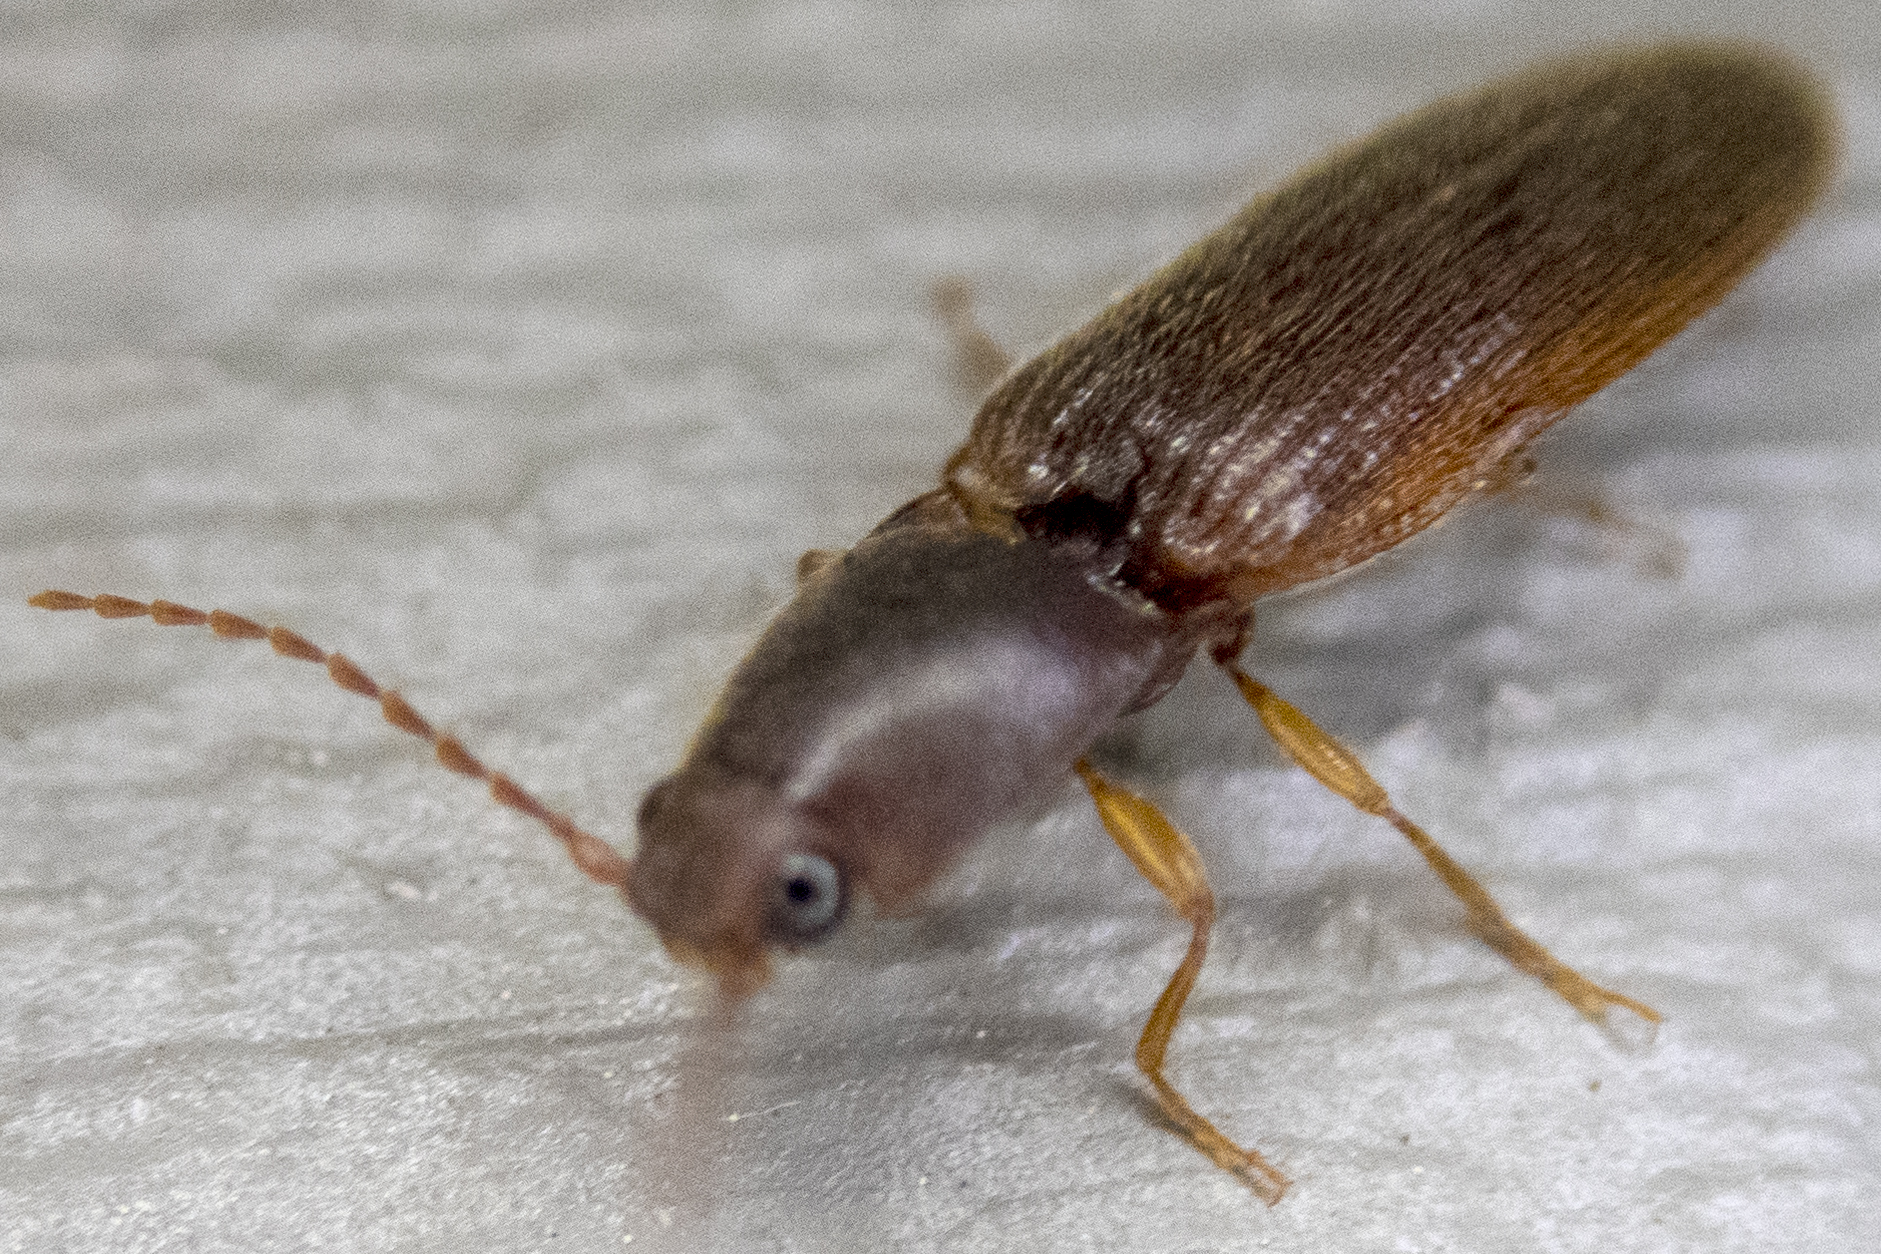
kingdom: Animalia
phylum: Arthropoda
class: Insecta
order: Coleoptera
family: Elateridae
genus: Athous
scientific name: Athous cucullatus
